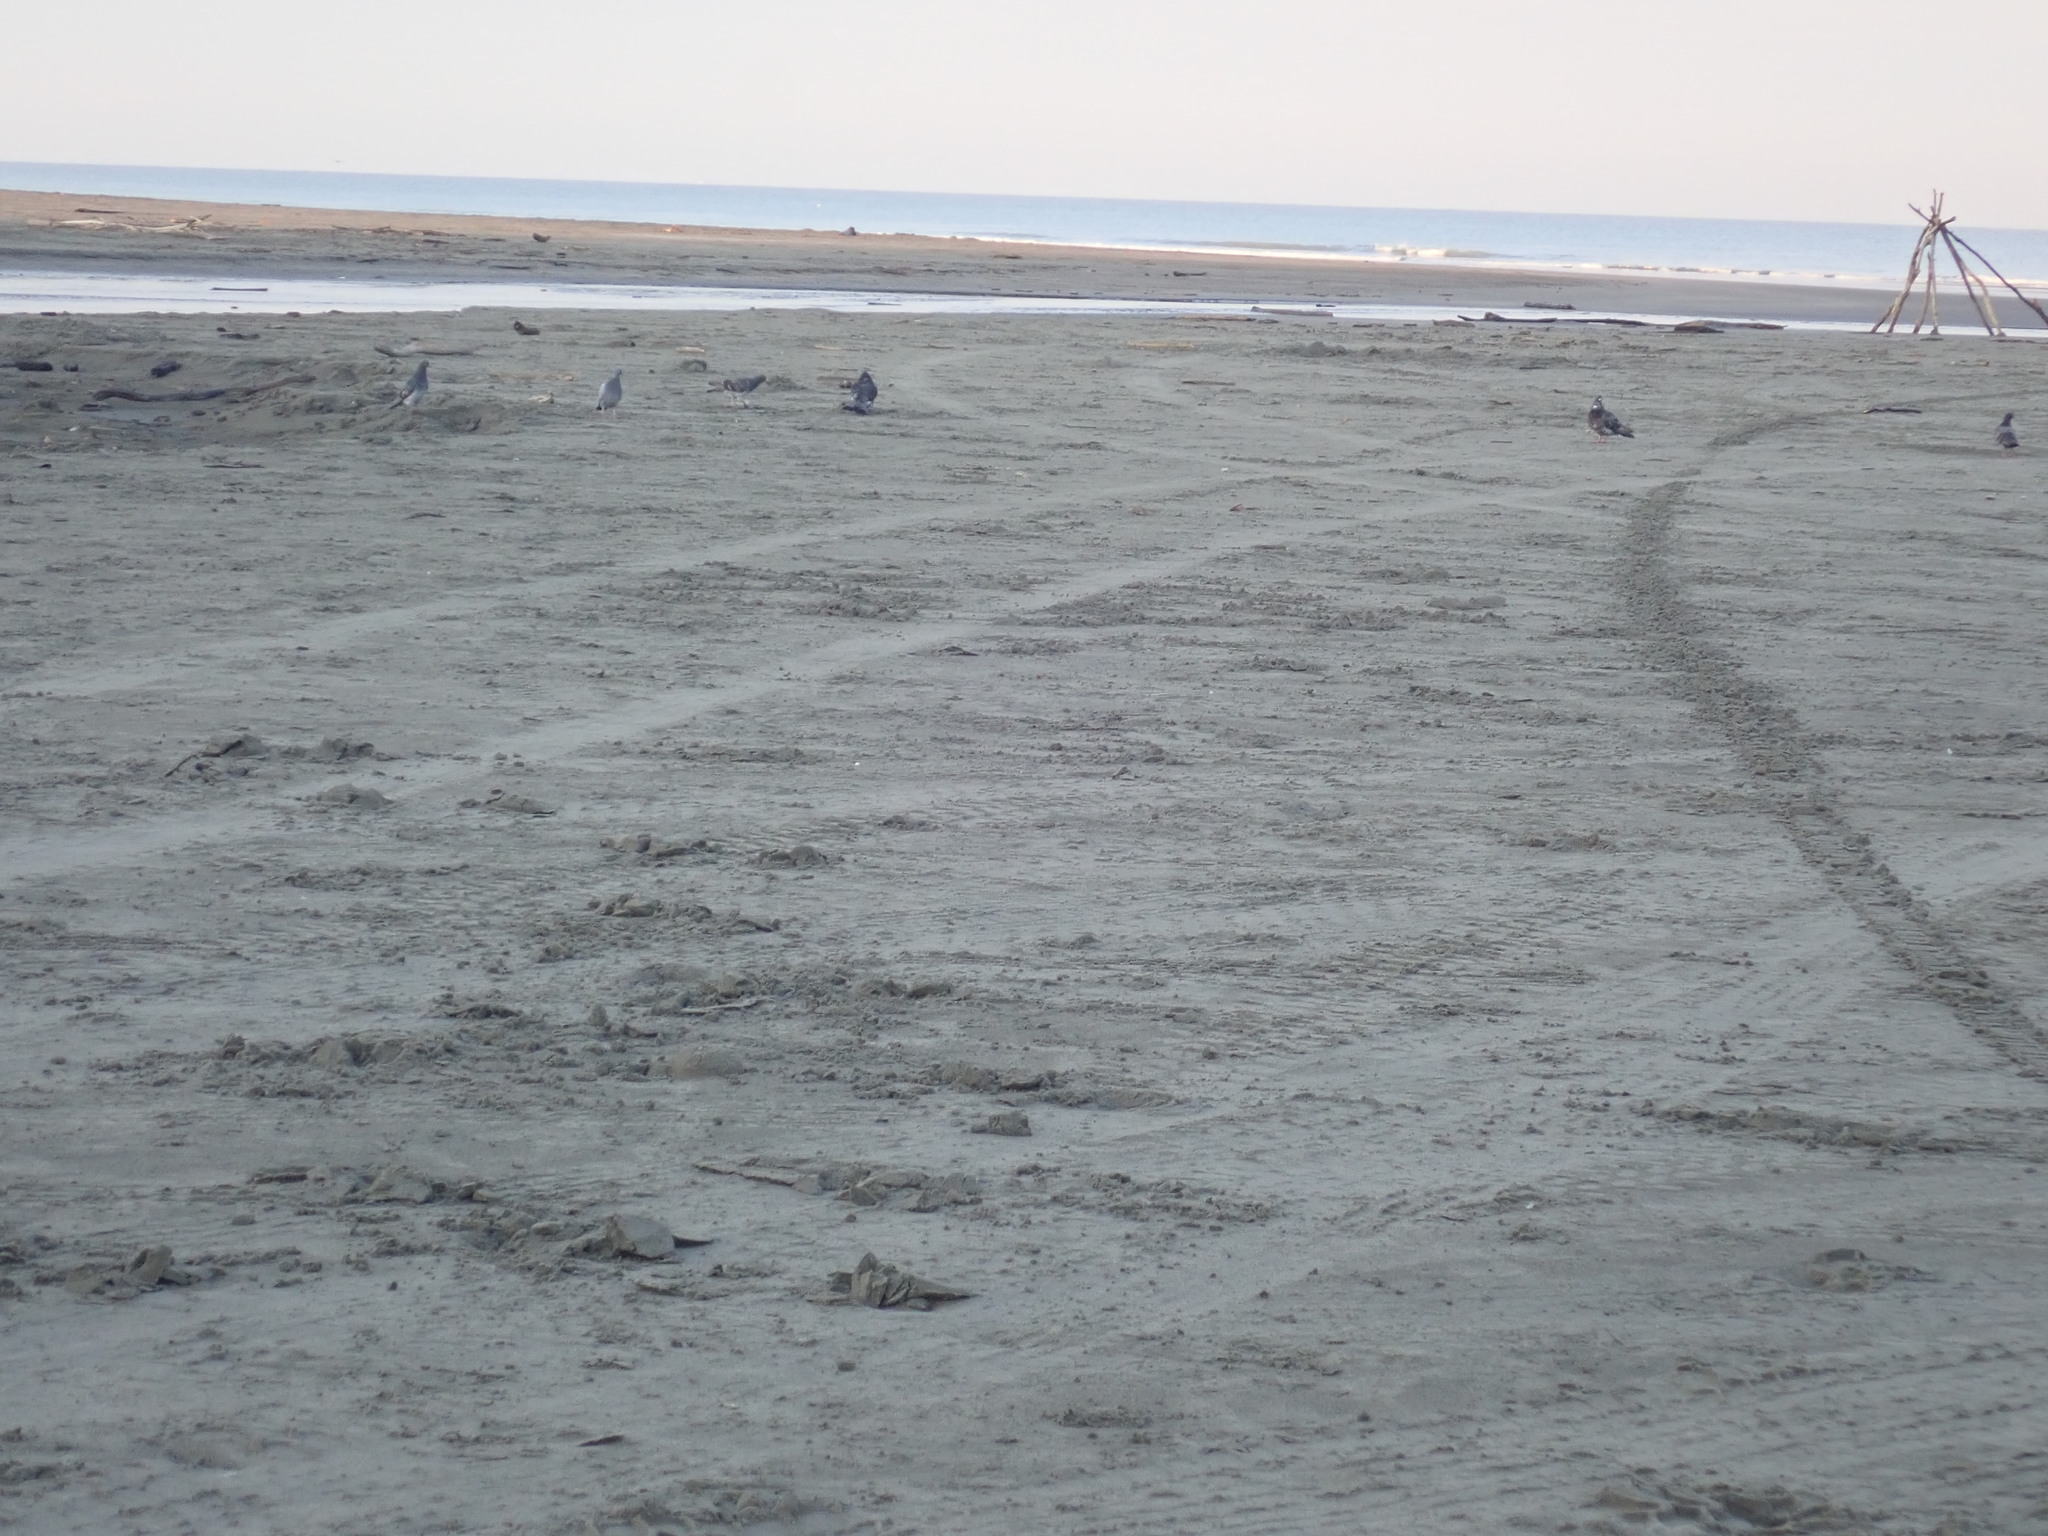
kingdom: Animalia
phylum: Chordata
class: Aves
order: Columbiformes
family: Columbidae
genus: Columba
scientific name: Columba livia
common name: Rock pigeon
